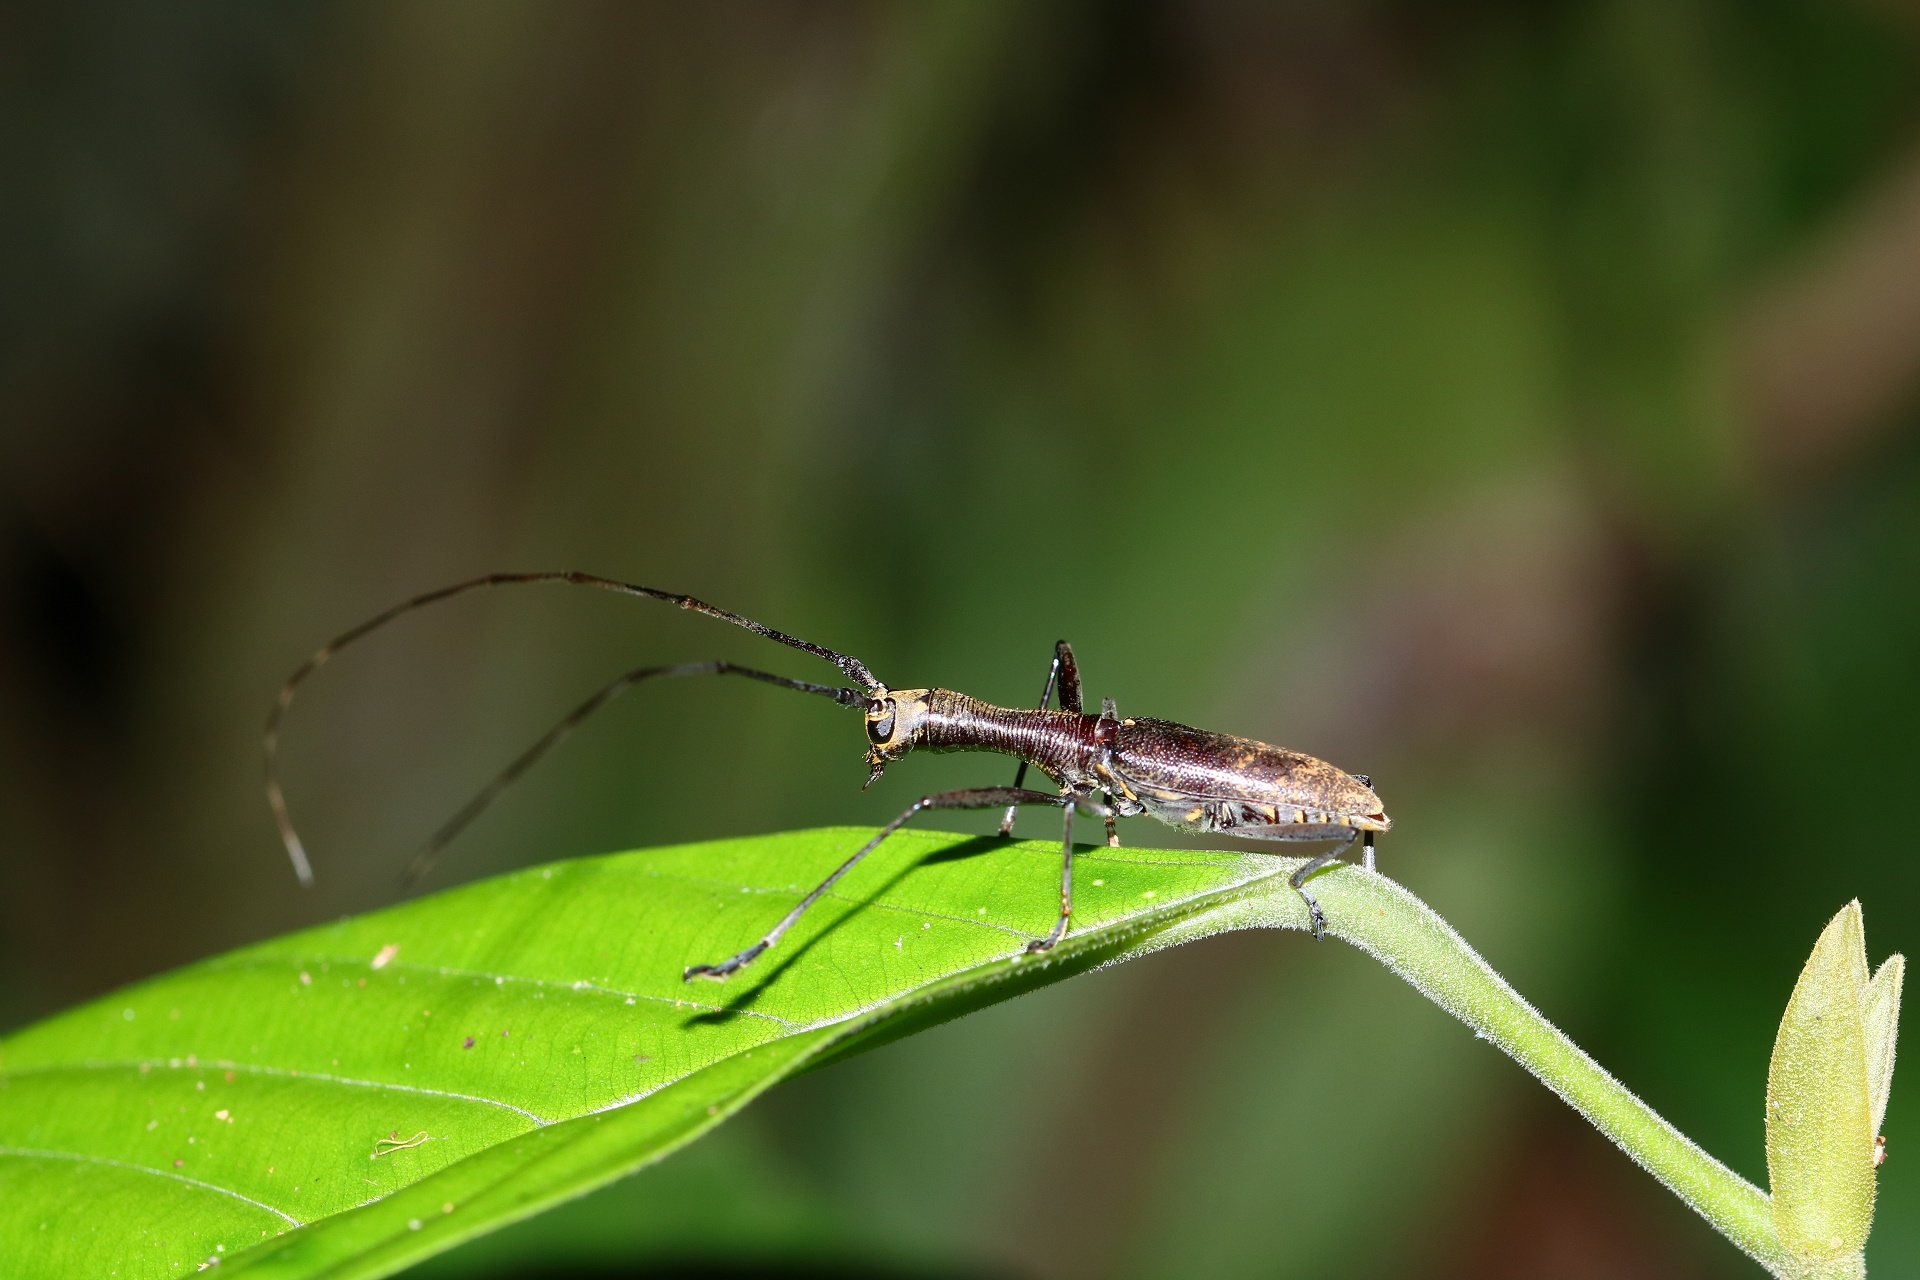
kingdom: Animalia
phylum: Arthropoda
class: Insecta
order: Coleoptera
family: Cerambycidae
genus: Gnoma
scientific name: Gnoma longicollis
